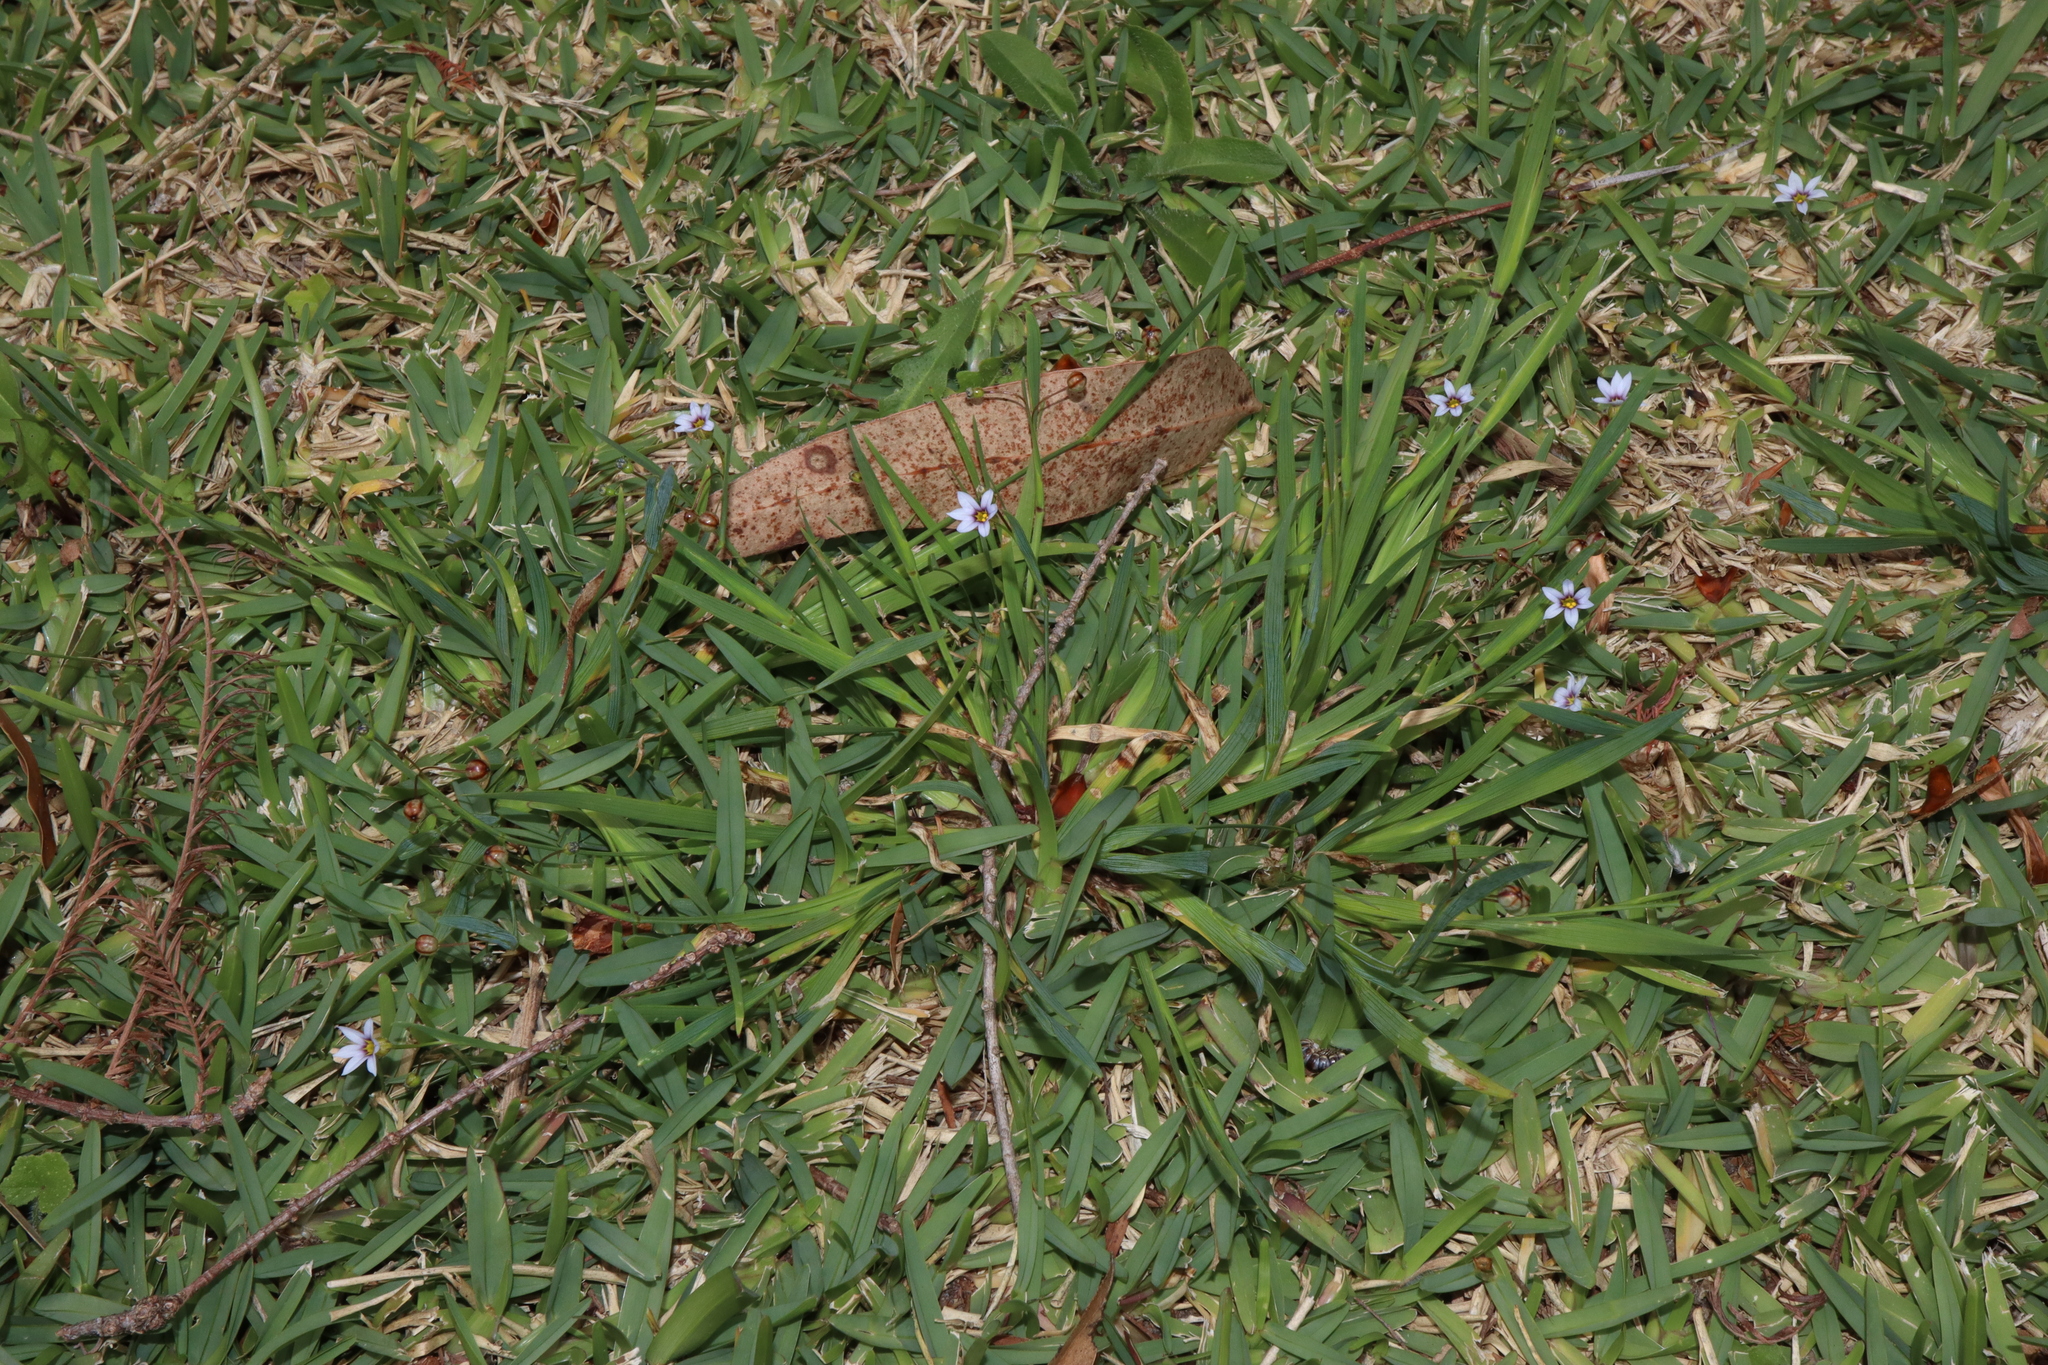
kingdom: Plantae
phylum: Tracheophyta
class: Liliopsida
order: Asparagales
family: Iridaceae
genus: Sisyrinchium
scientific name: Sisyrinchium micranthum
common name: Bermuda pigroot
